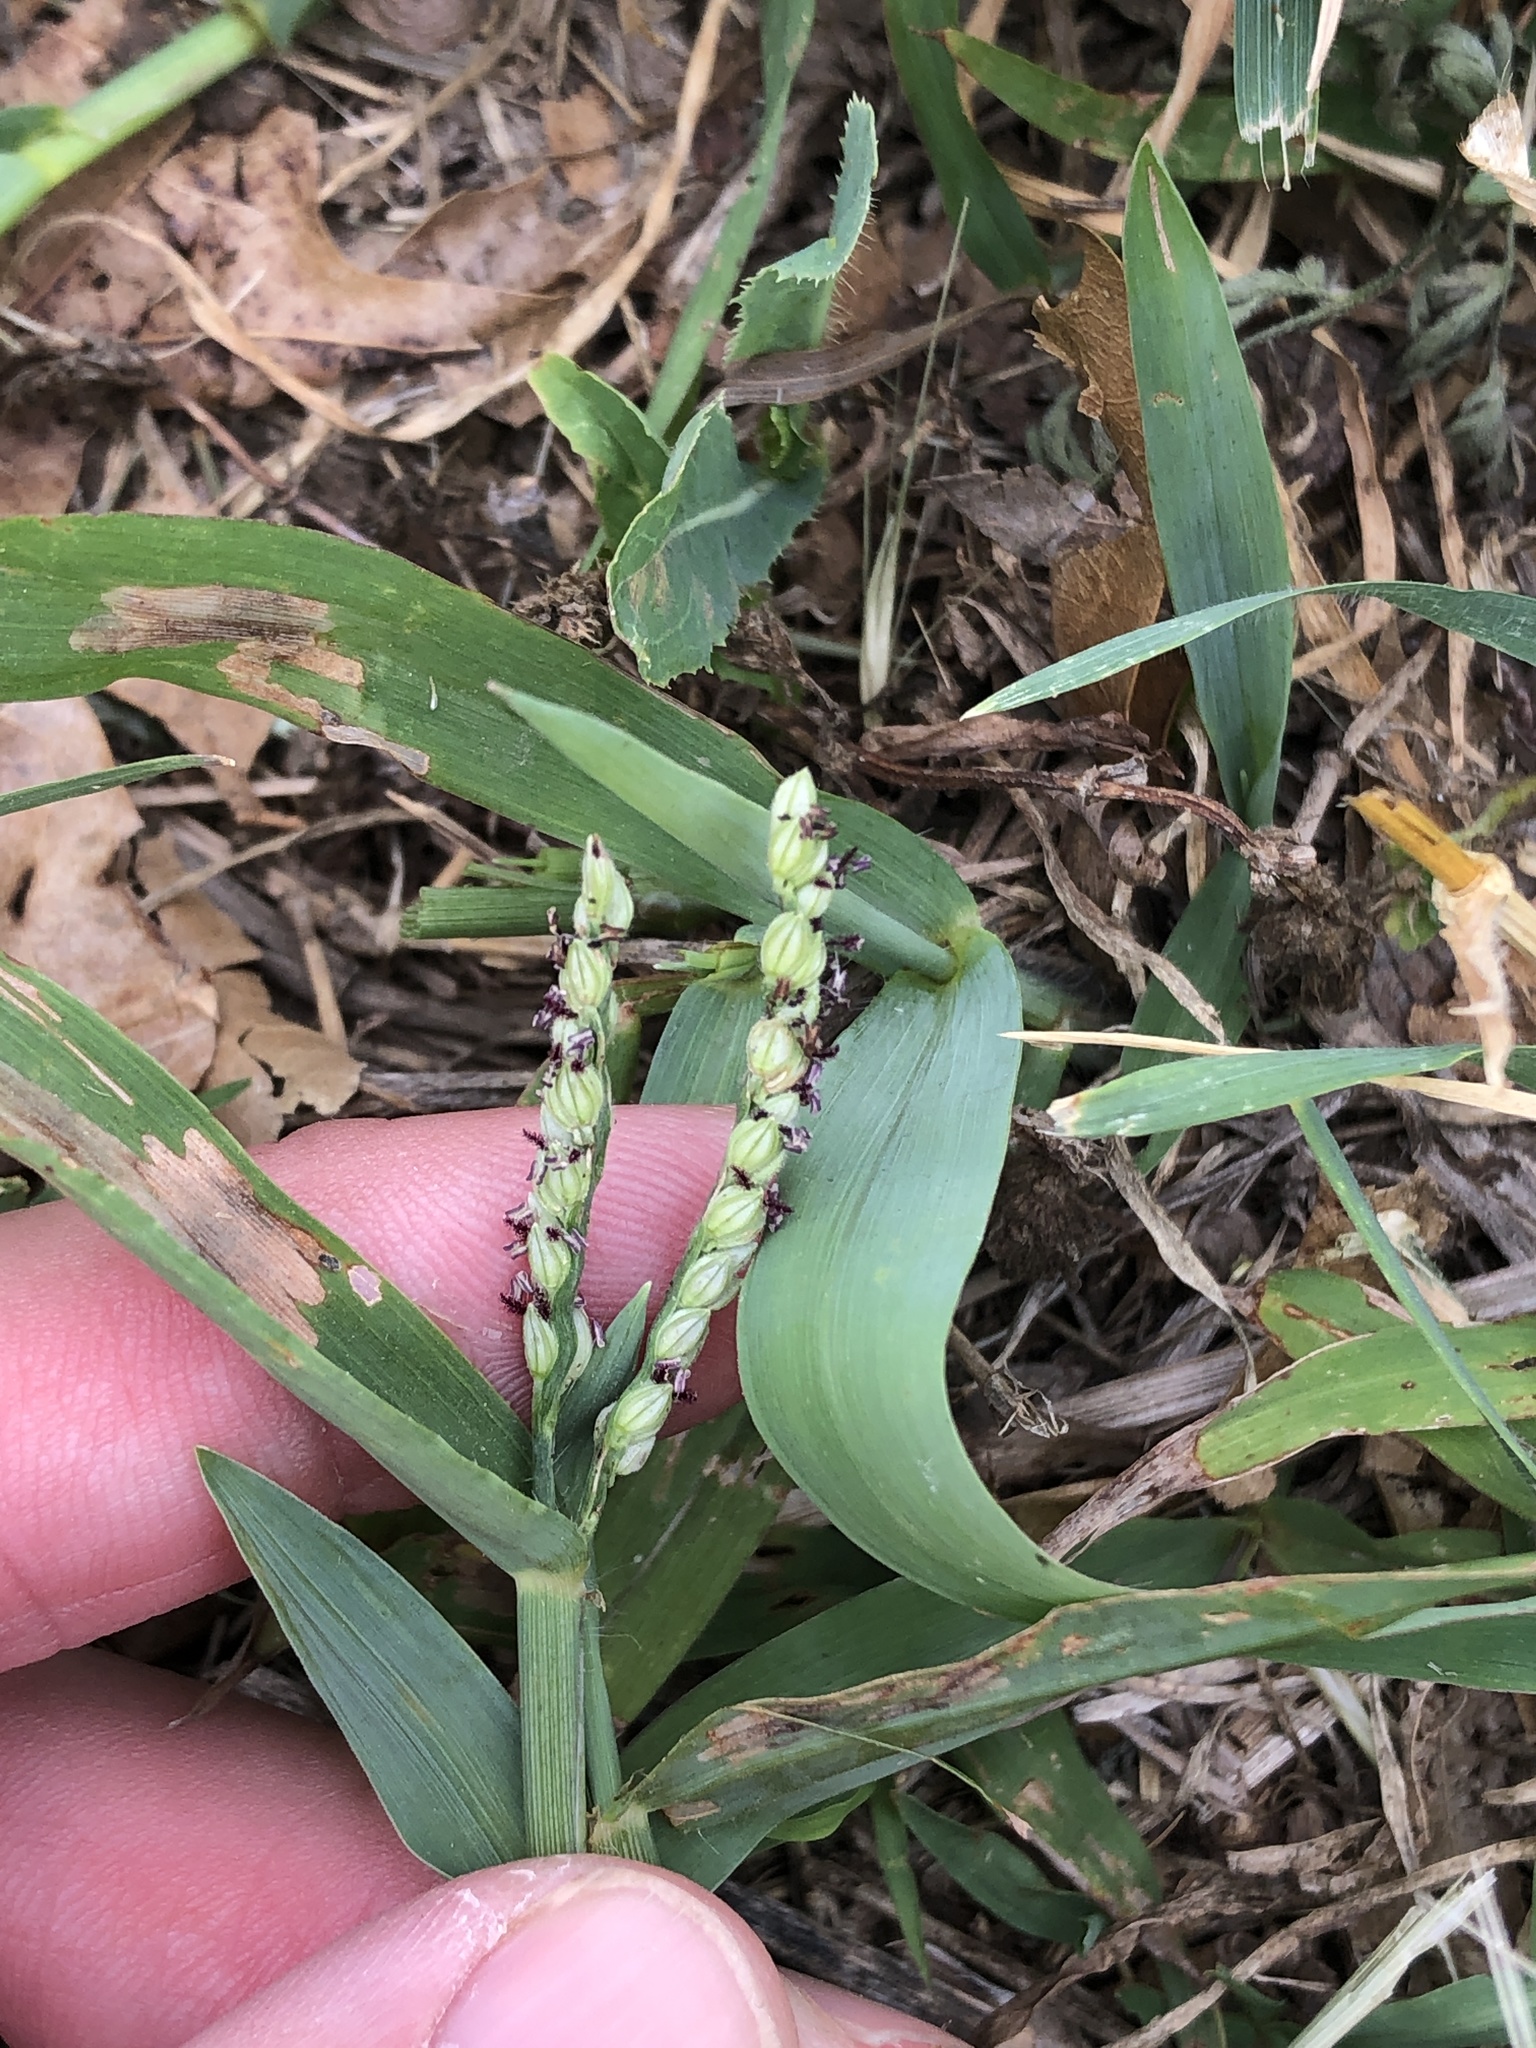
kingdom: Plantae
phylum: Tracheophyta
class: Liliopsida
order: Poales
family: Poaceae
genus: Paspalum
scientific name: Paspalum pubiflorum
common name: Hairy-seed paspalum
